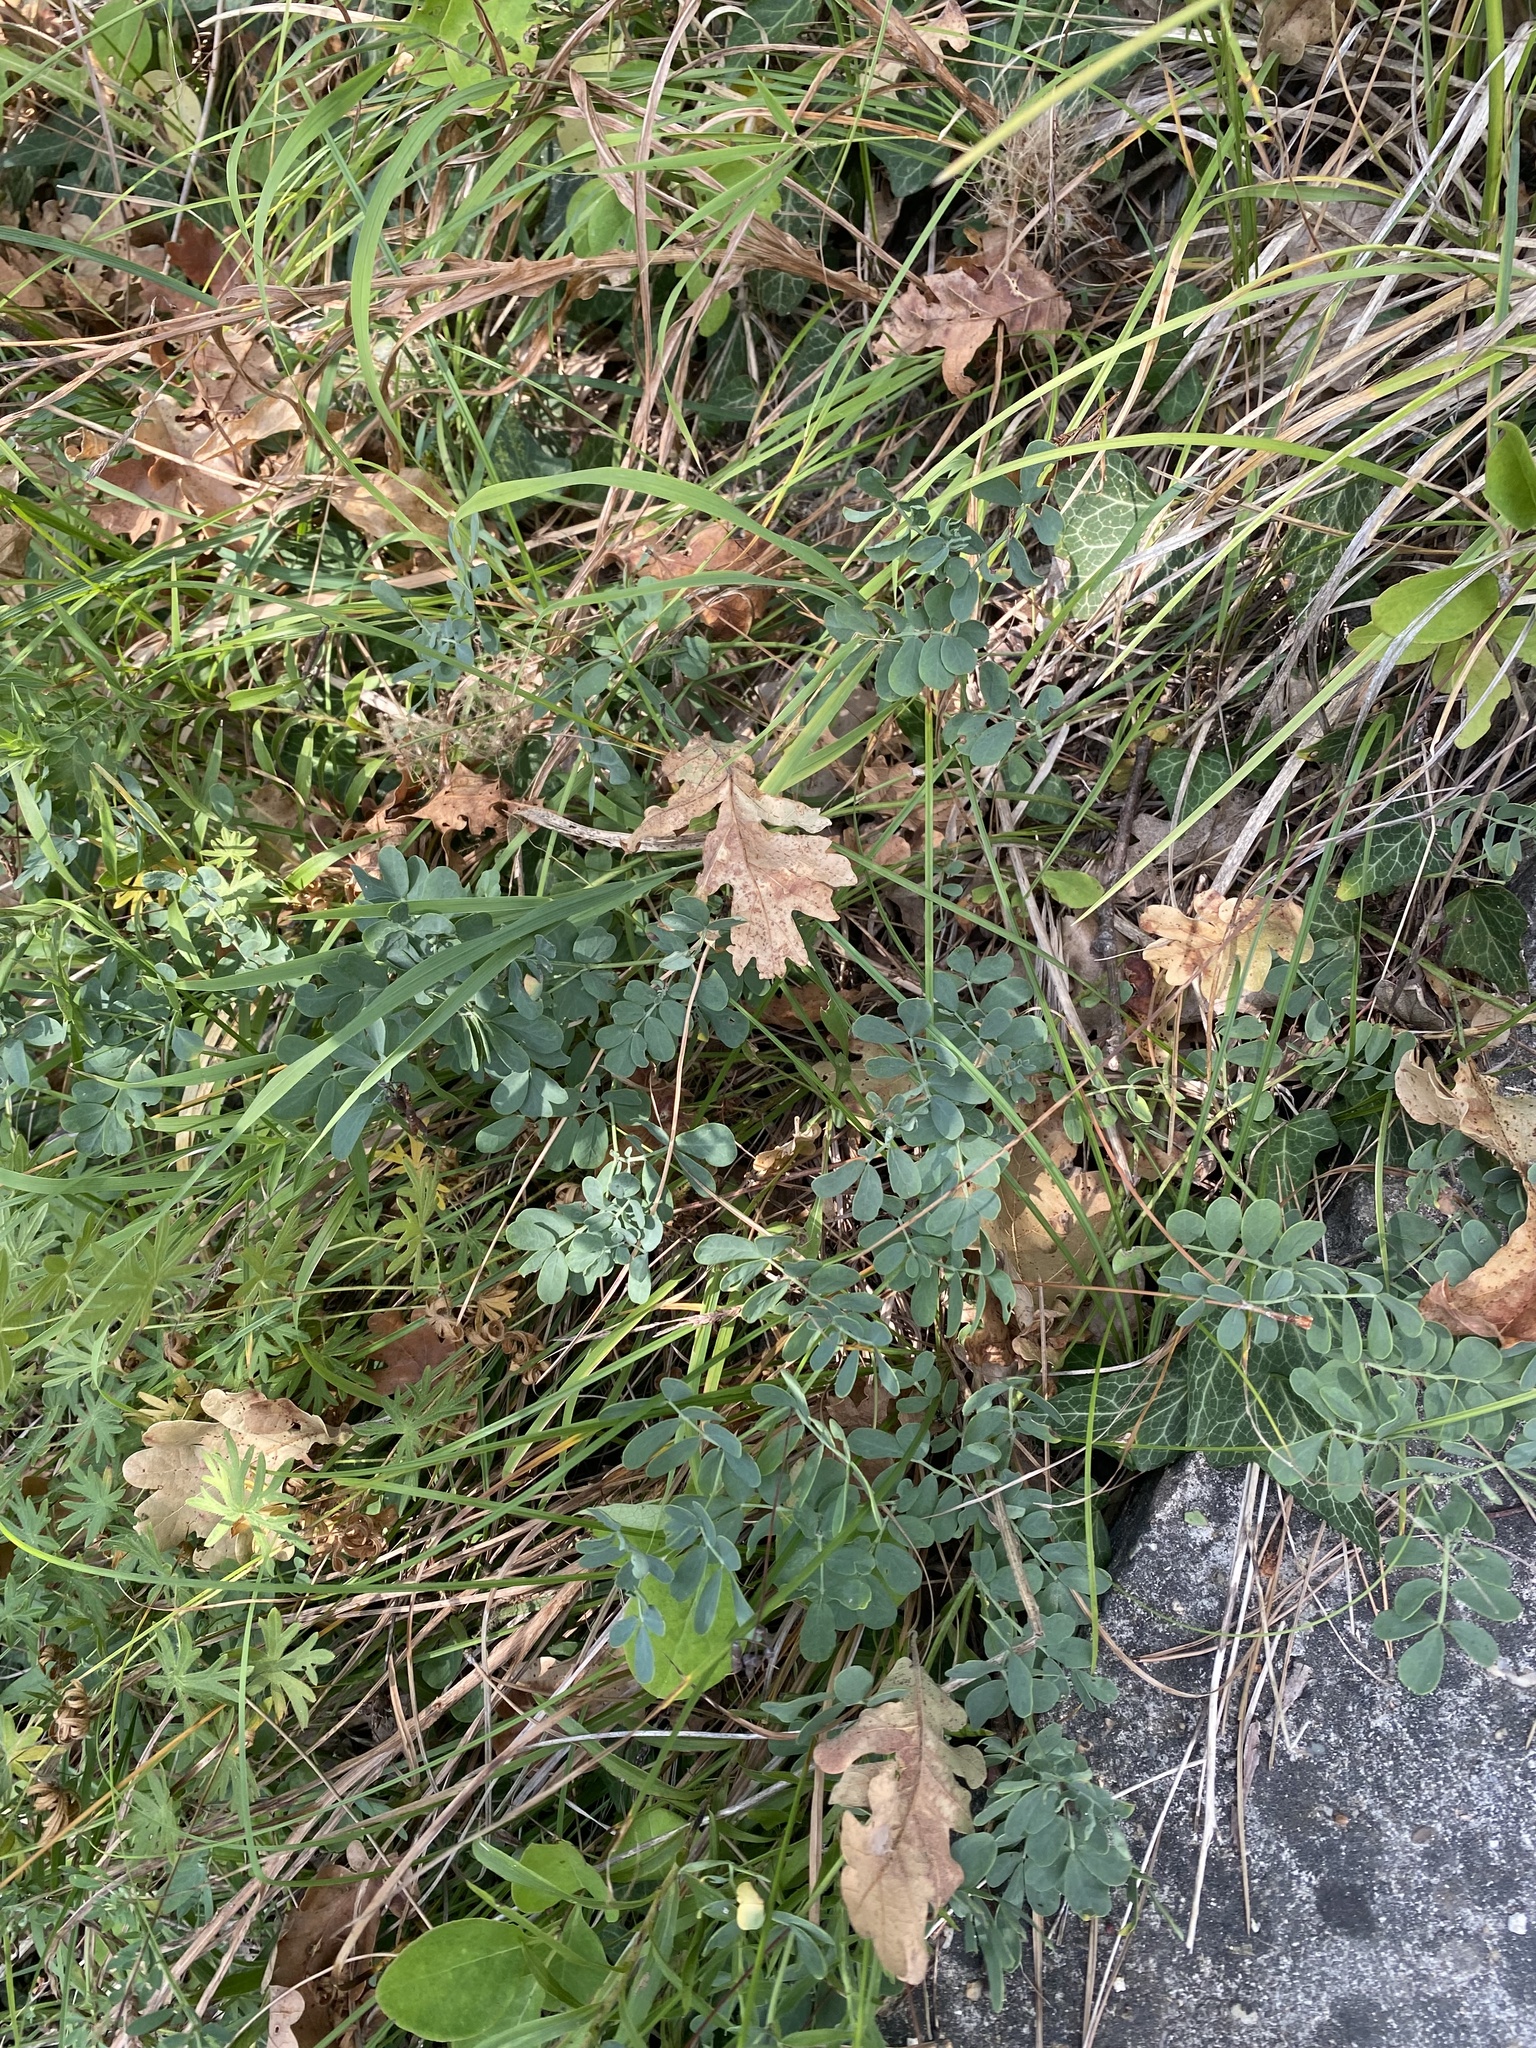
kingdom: Plantae
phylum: Tracheophyta
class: Magnoliopsida
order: Fabales
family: Fabaceae
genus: Coronilla
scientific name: Coronilla coronata
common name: Scorpion-vetch
